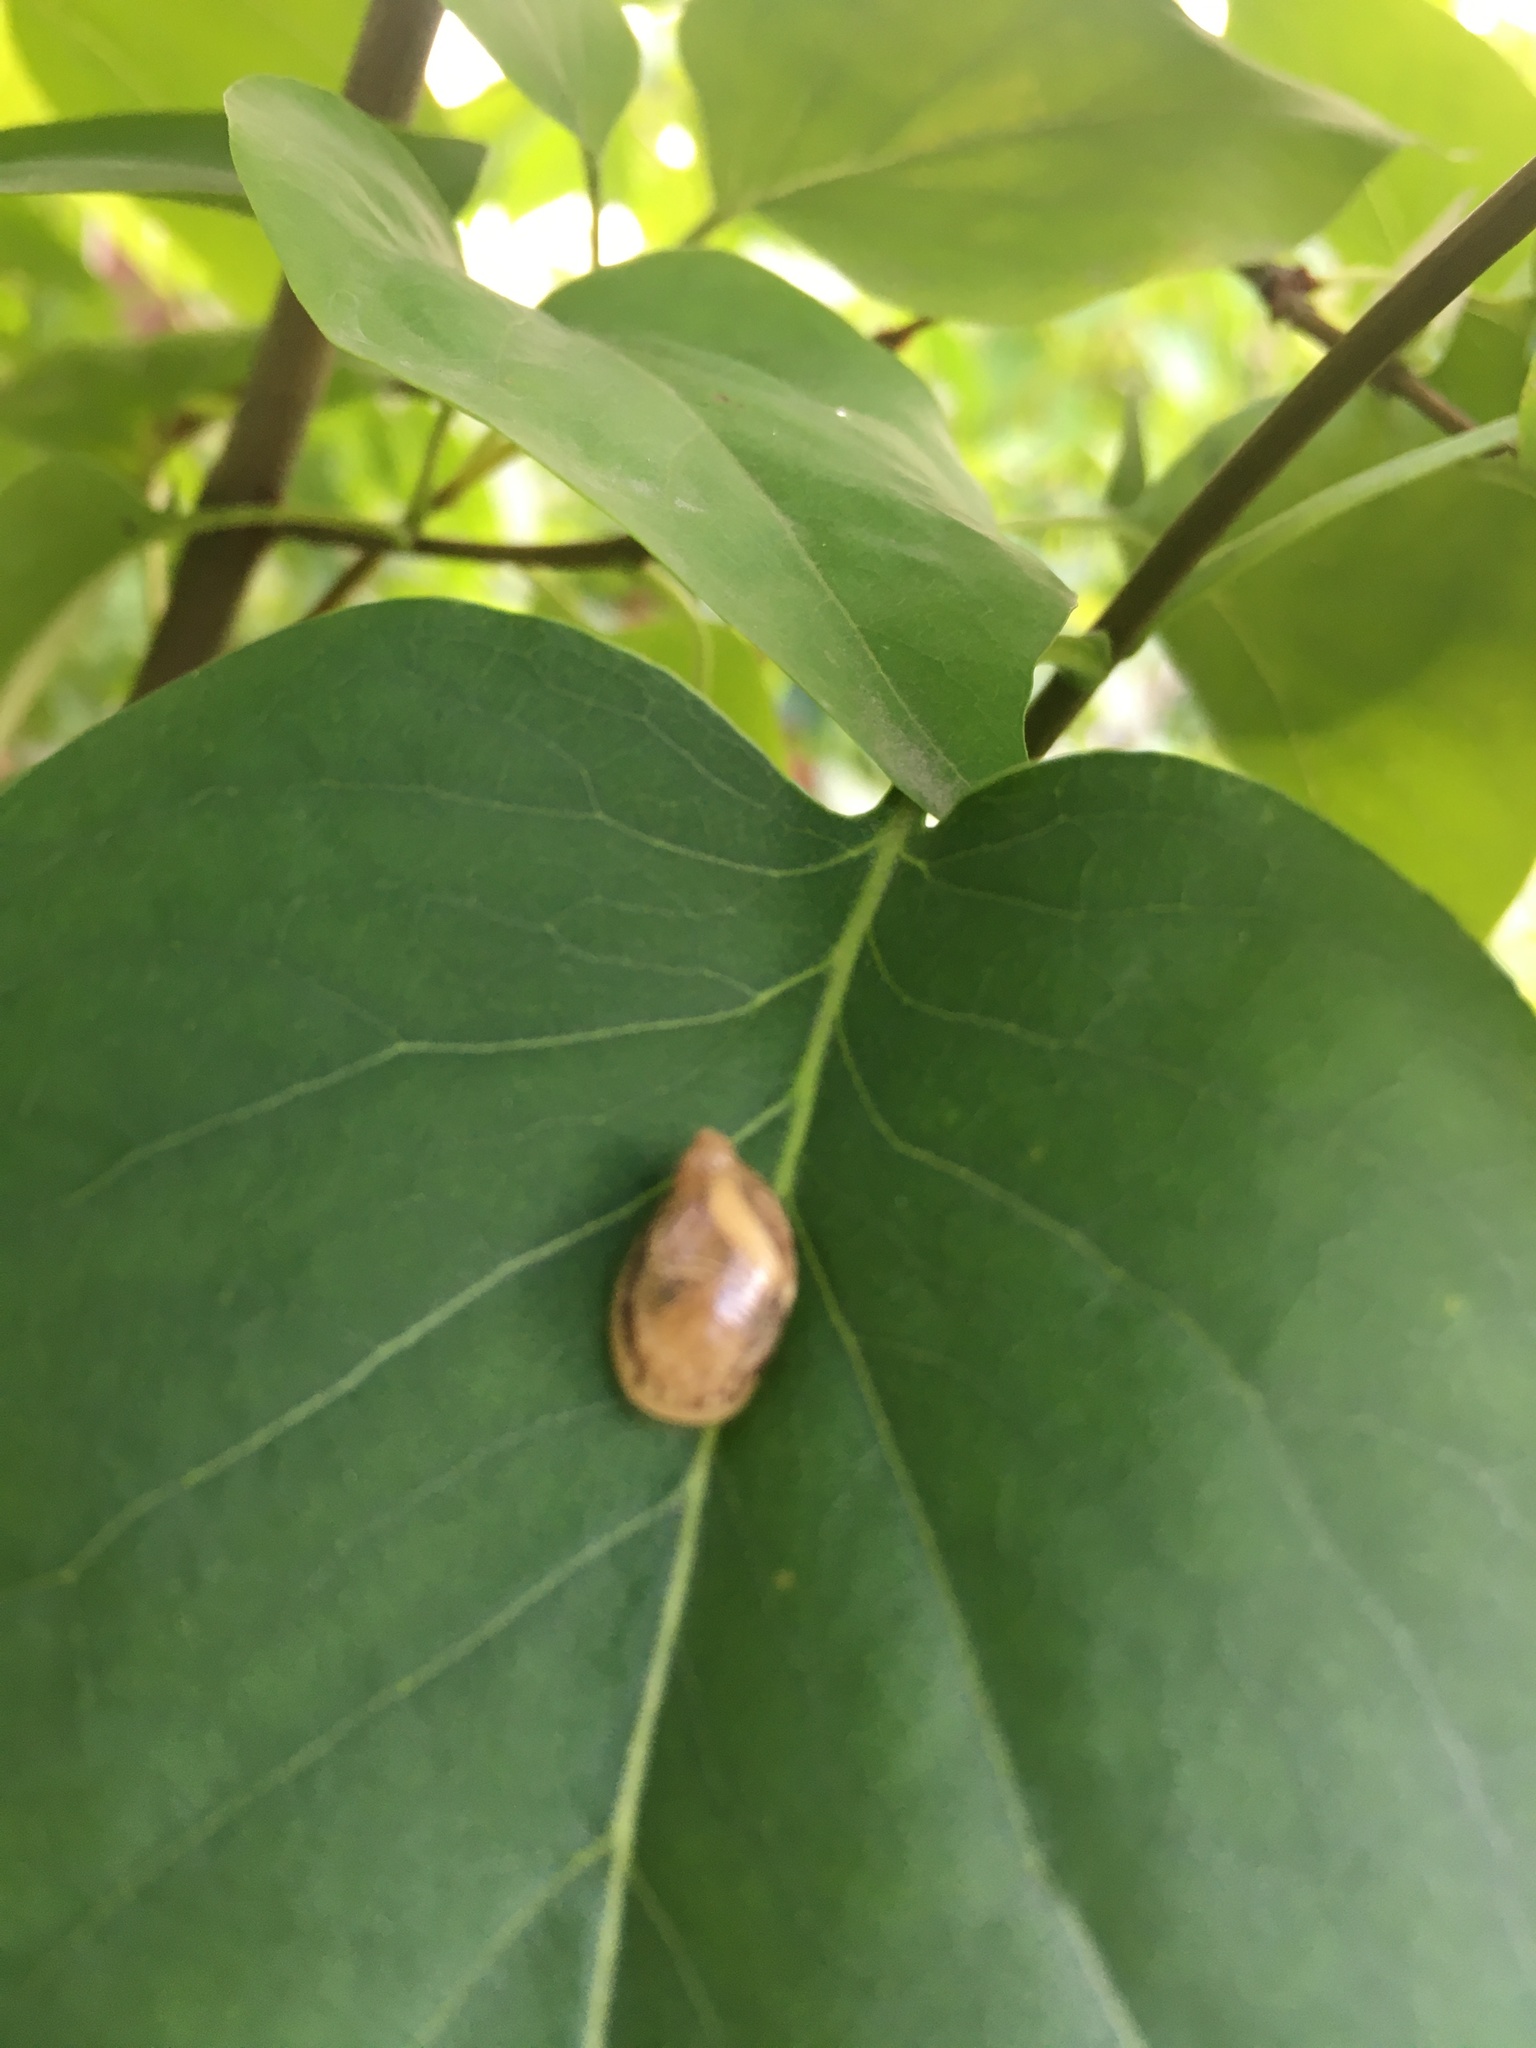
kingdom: Animalia
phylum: Mollusca
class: Gastropoda
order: Stylommatophora
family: Succineidae
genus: Succinea
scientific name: Succinea putris
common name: European ambersnail
